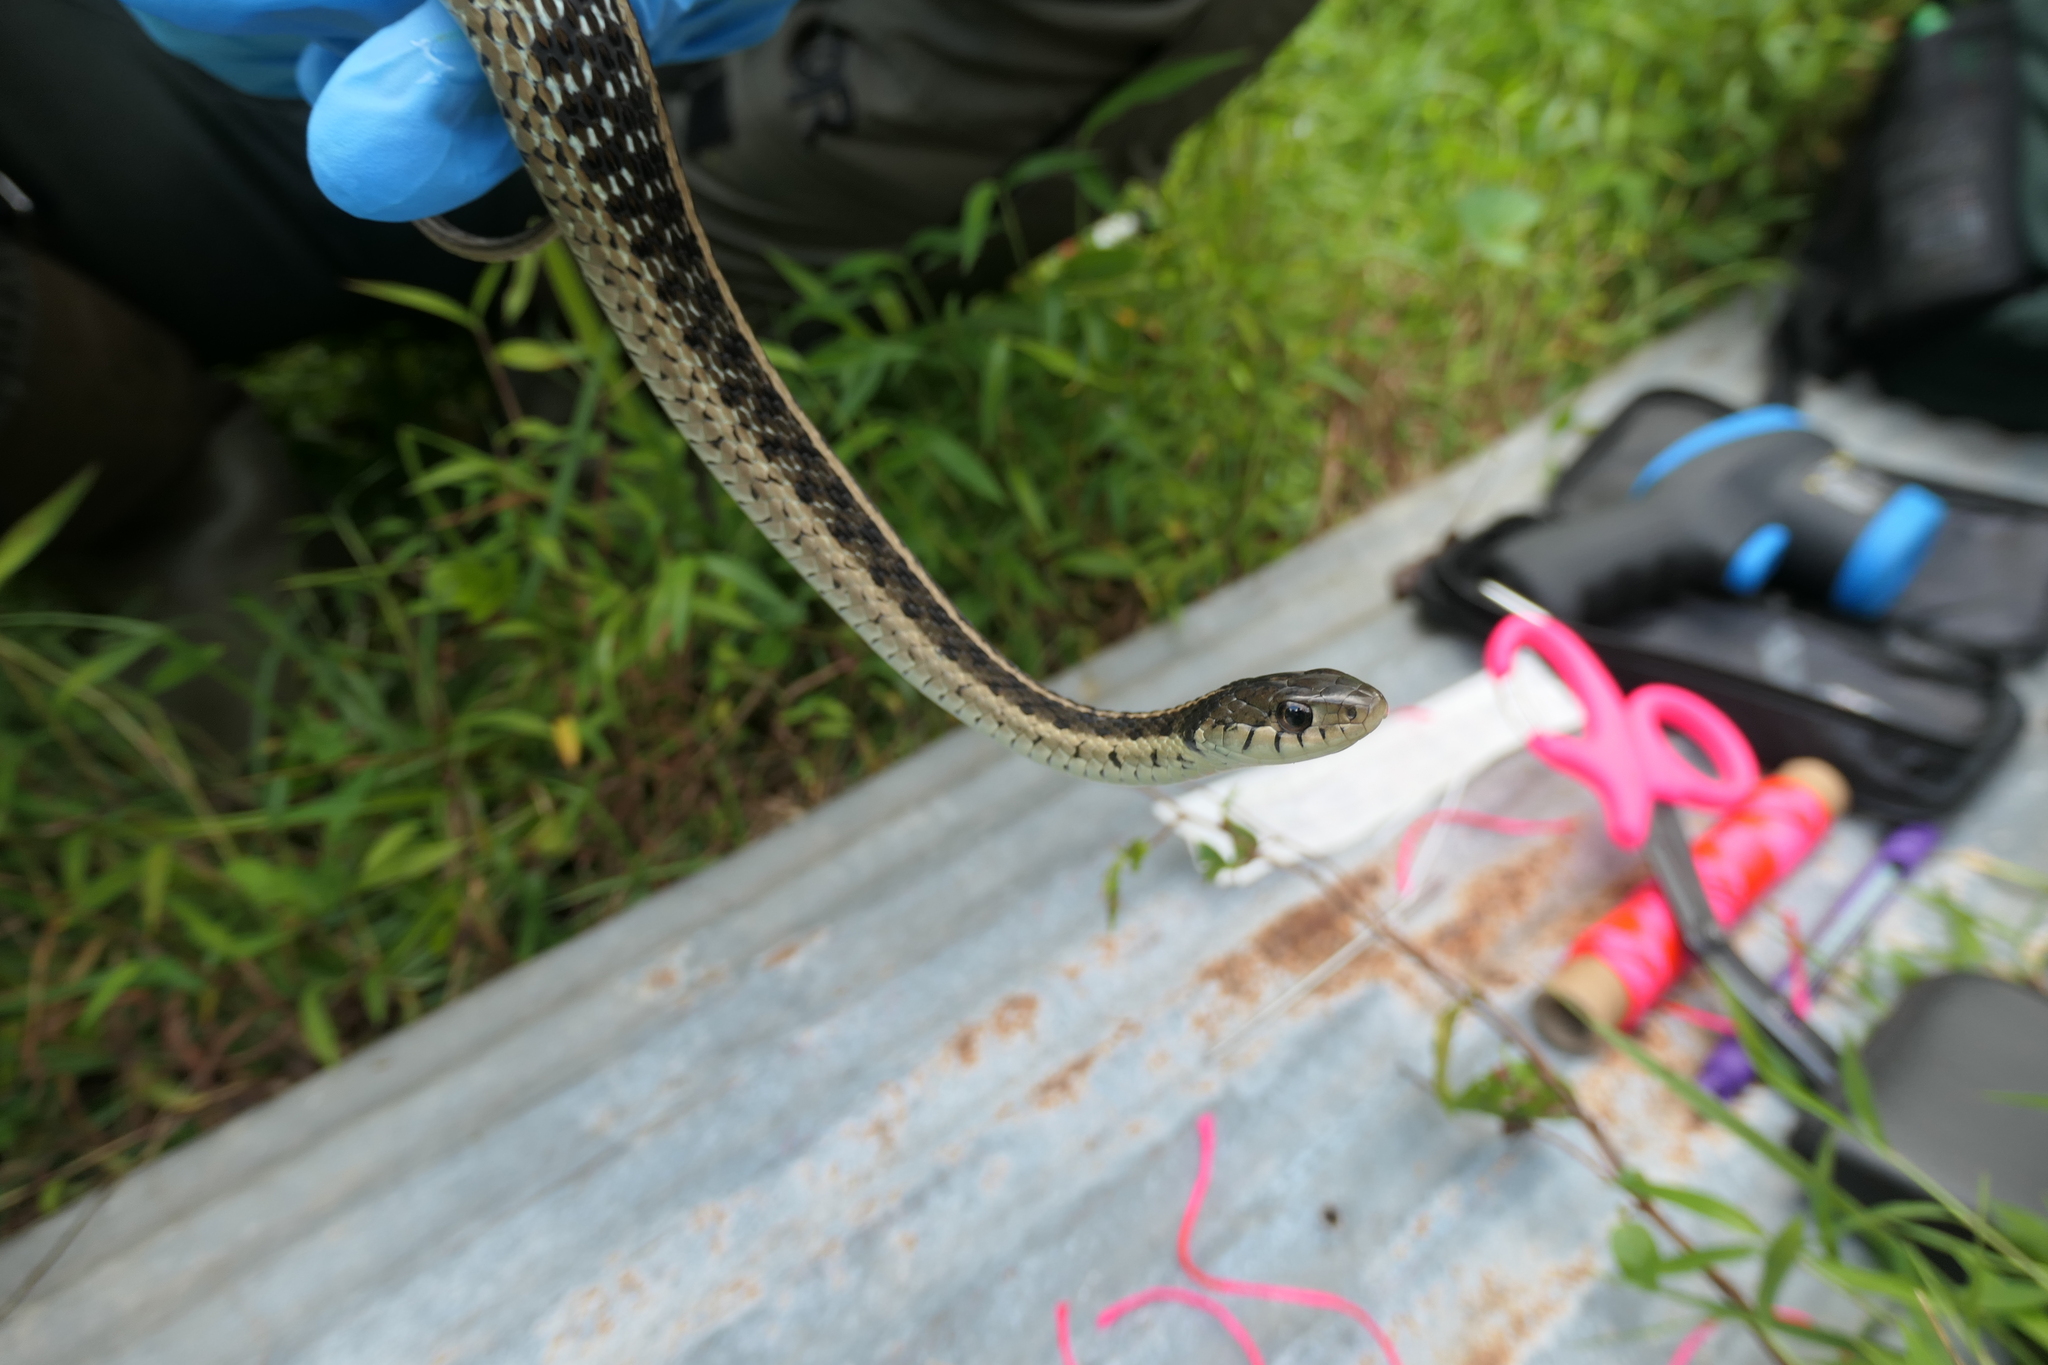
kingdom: Animalia
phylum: Chordata
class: Squamata
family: Colubridae
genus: Thamnophis
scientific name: Thamnophis sirtalis
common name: Common garter snake
